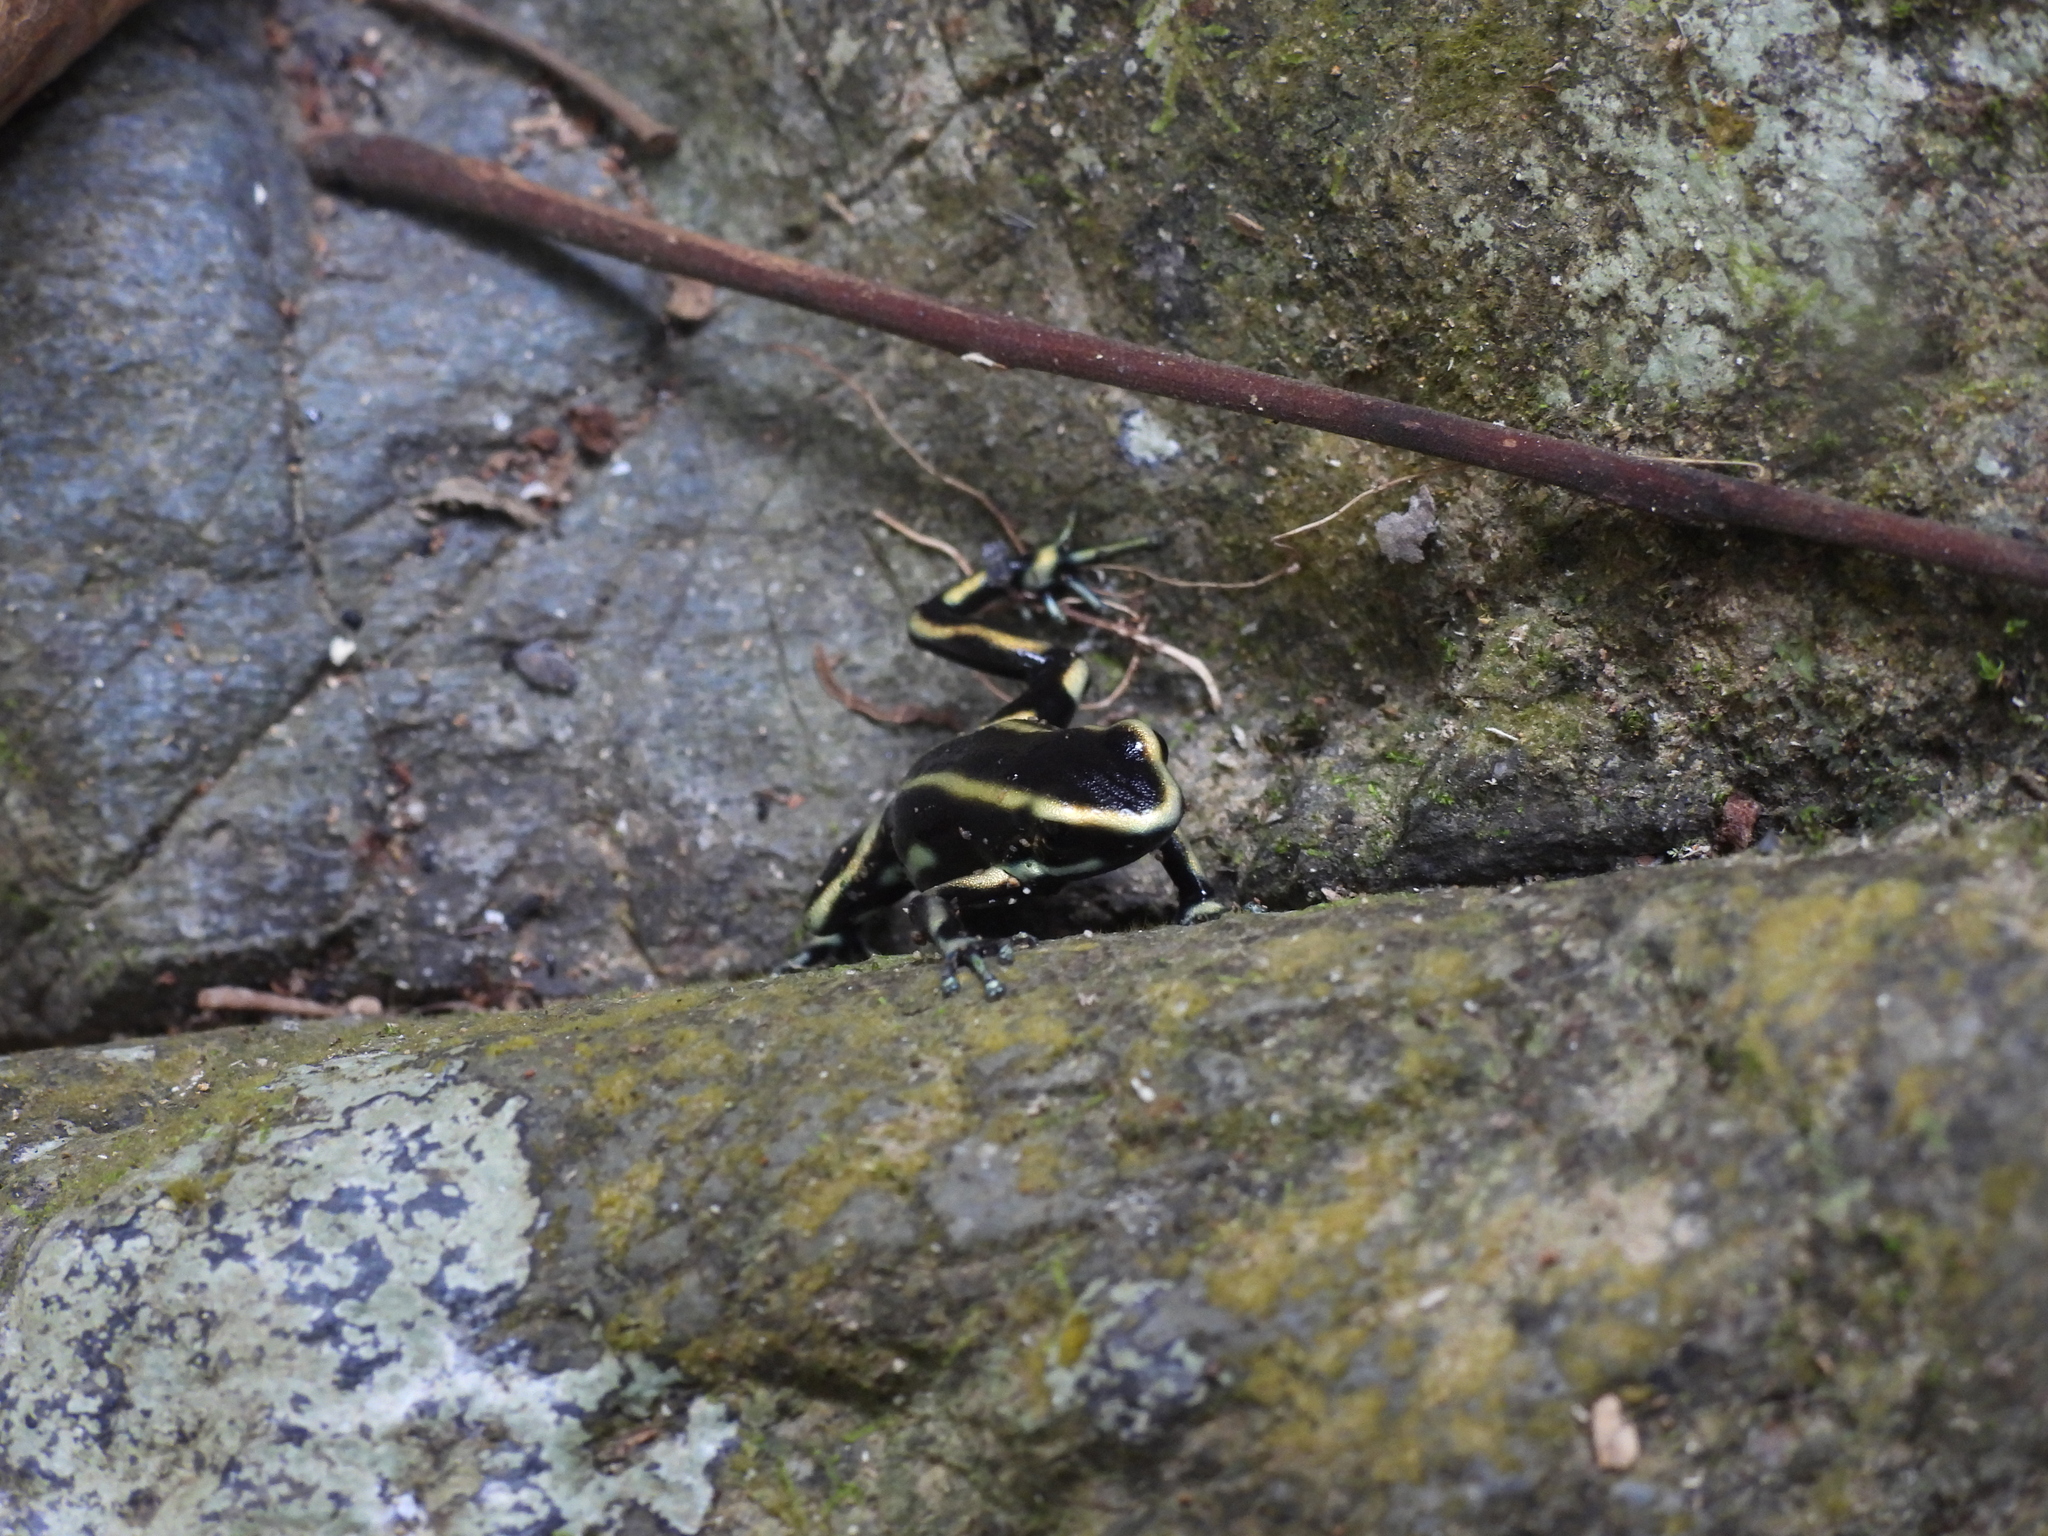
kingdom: Animalia
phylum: Chordata
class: Amphibia
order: Anura
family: Dendrobatidae
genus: Dendrobates
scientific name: Dendrobates truncatus
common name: Yellow-striped poison frog
